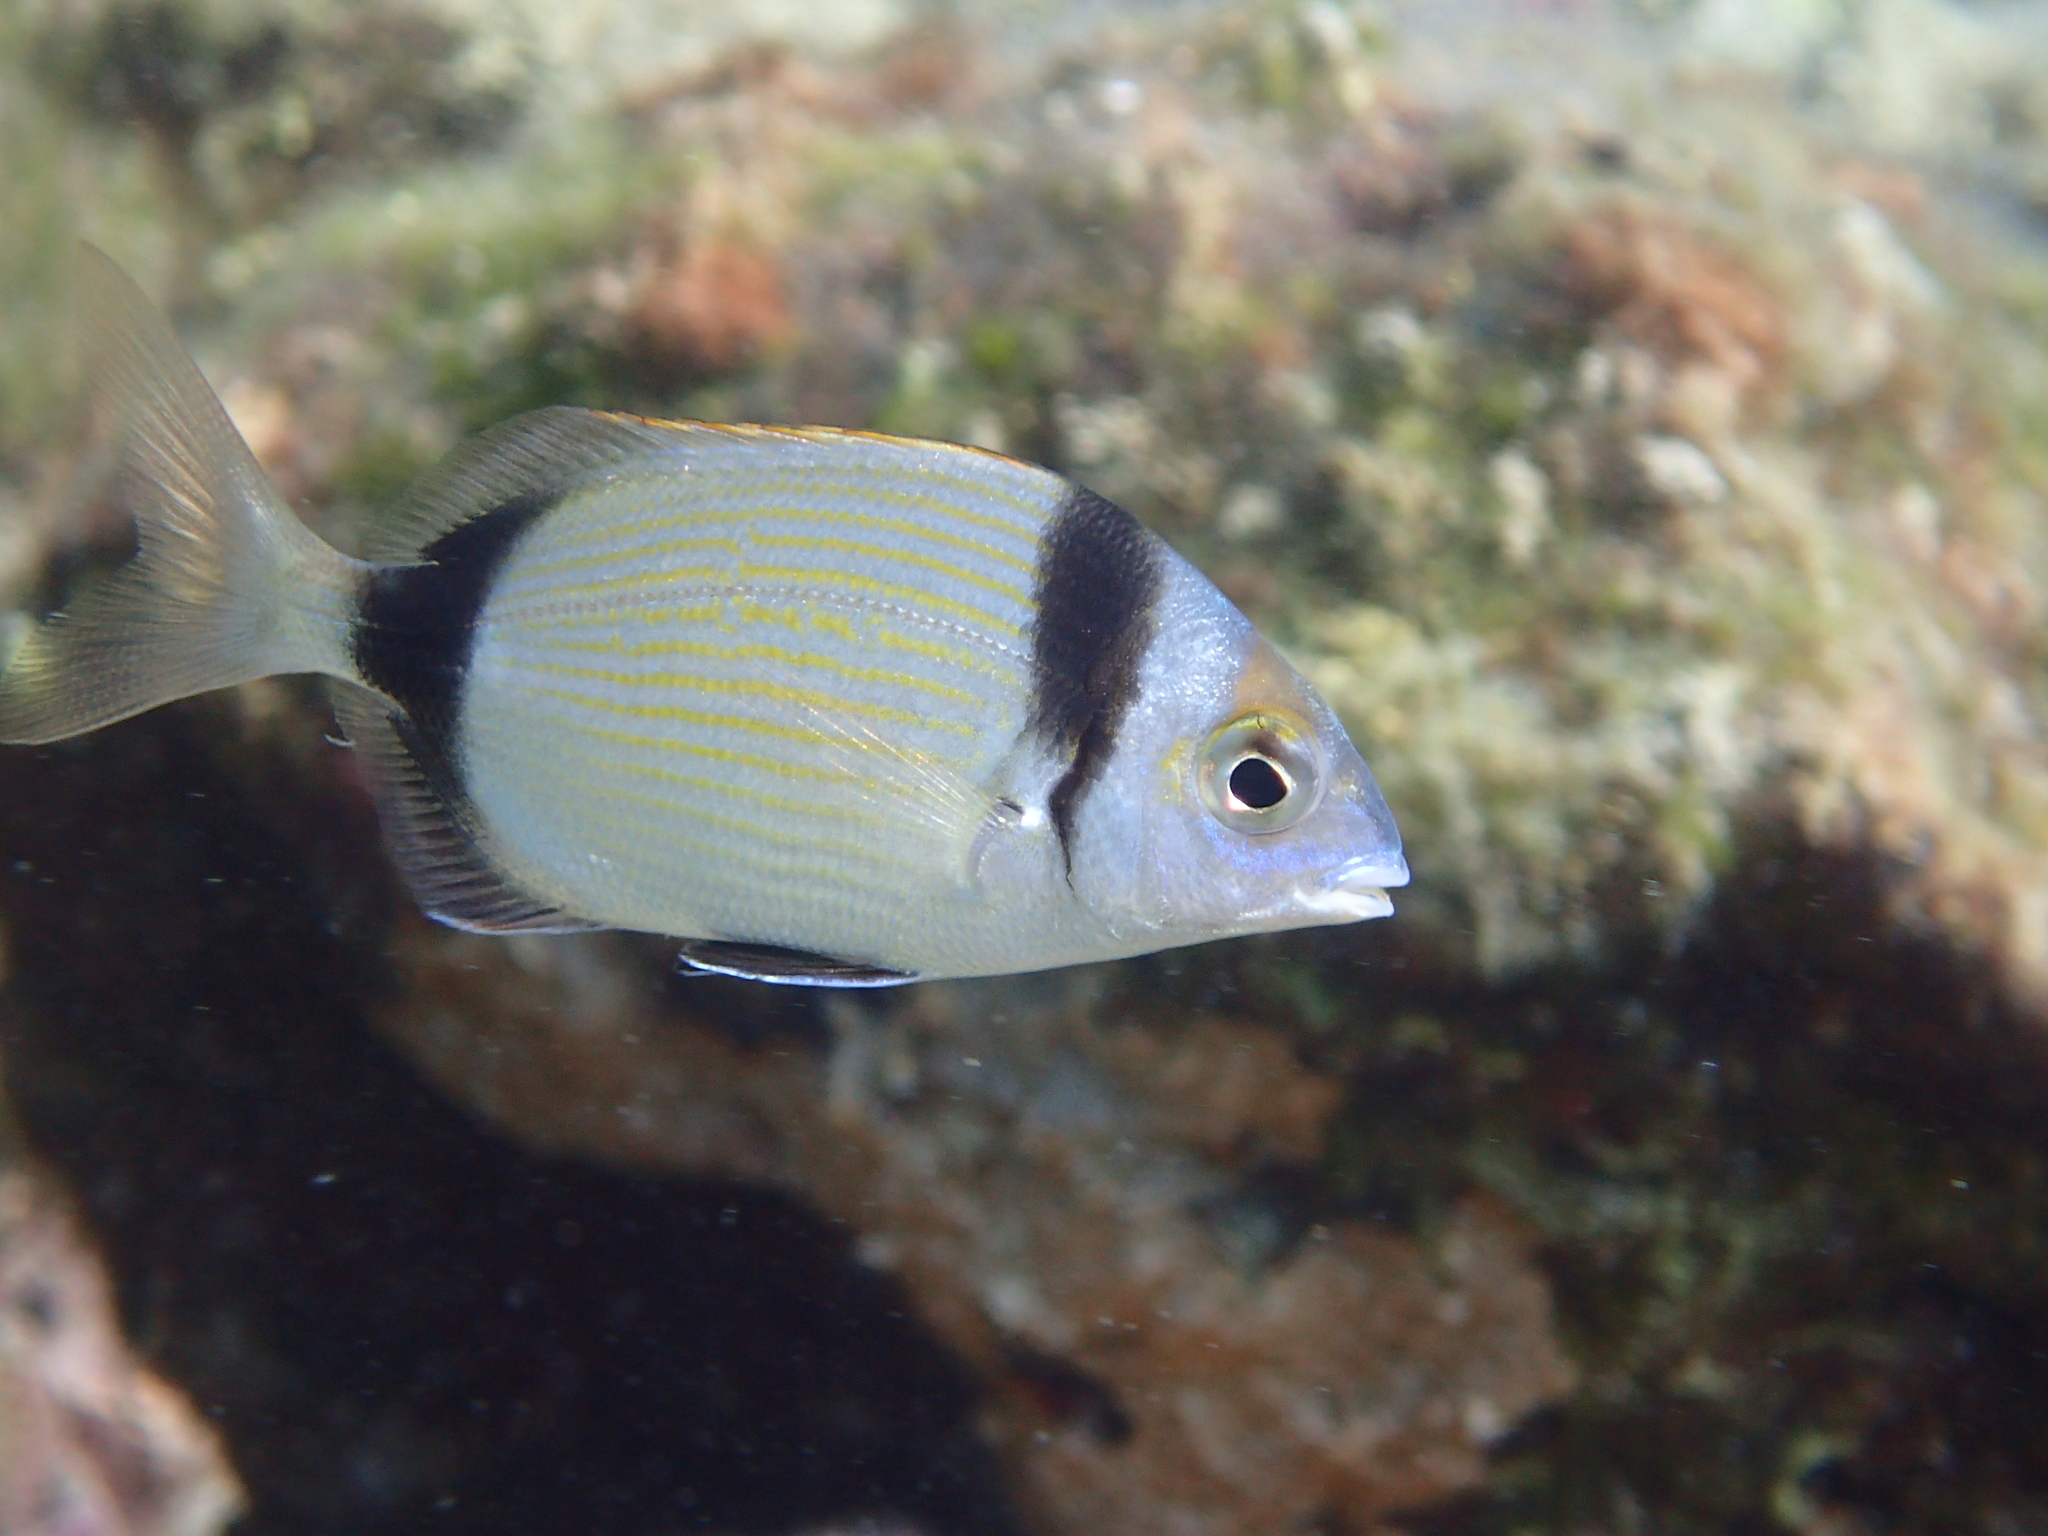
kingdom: Animalia
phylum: Chordata
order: Perciformes
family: Sparidae
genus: Diplodus
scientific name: Diplodus vulgaris
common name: Common two-banded seabream
